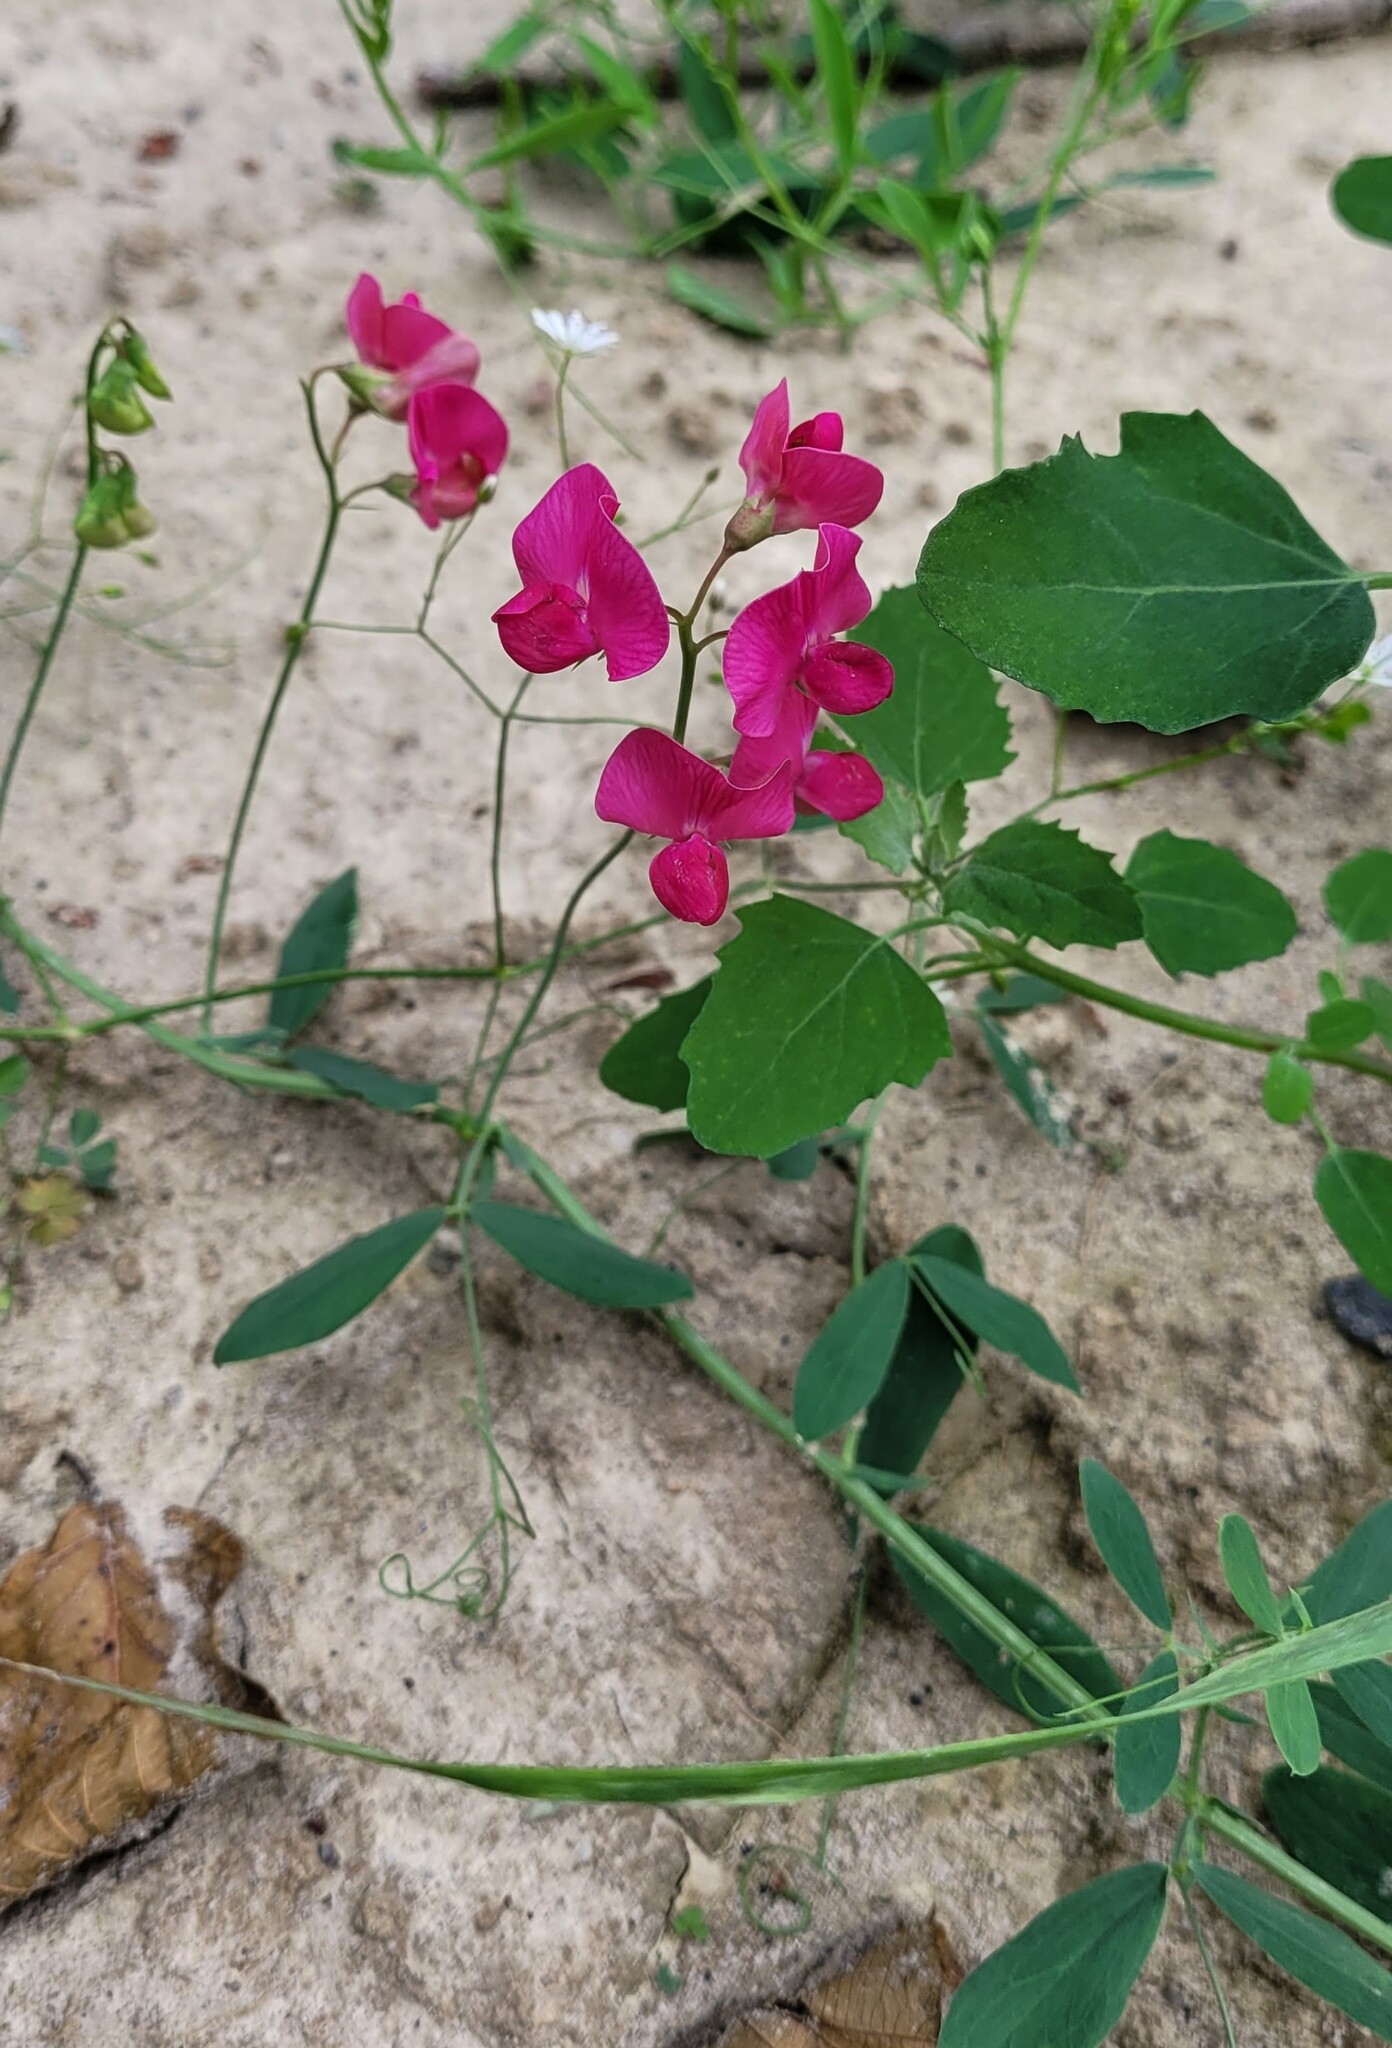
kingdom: Plantae
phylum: Tracheophyta
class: Magnoliopsida
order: Fabales
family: Fabaceae
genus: Lathyrus
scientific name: Lathyrus tuberosus
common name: Tuberous pea
